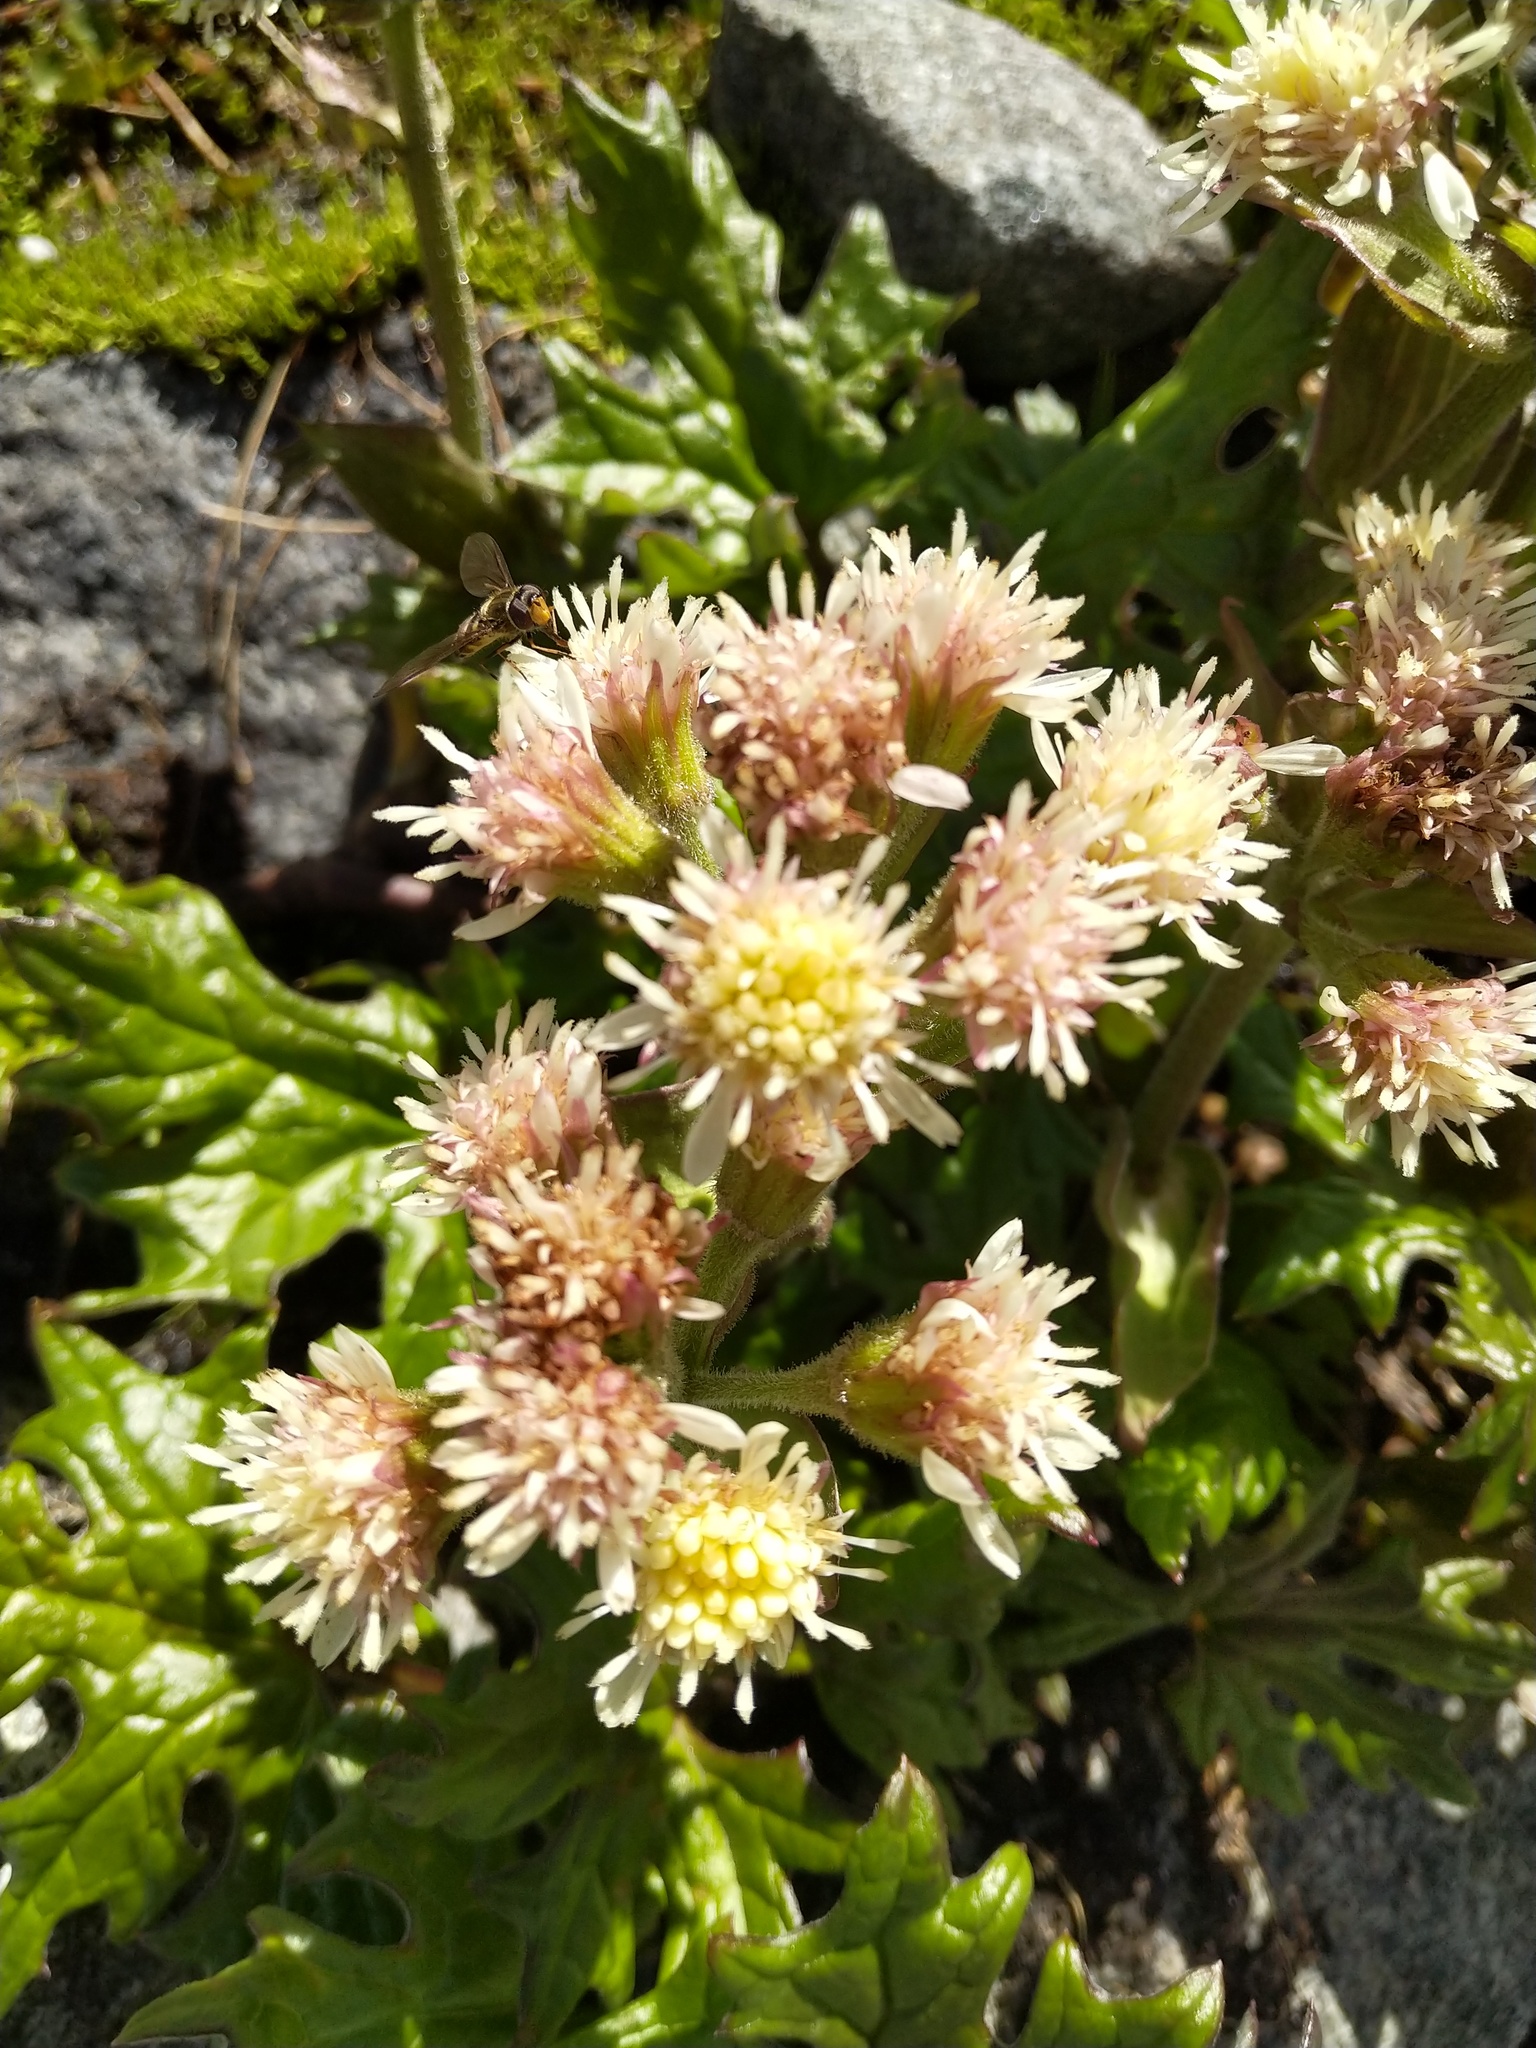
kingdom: Plantae
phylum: Tracheophyta
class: Magnoliopsida
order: Asterales
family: Asteraceae
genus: Petasites
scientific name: Petasites frigidus
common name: Arctic butterbur
